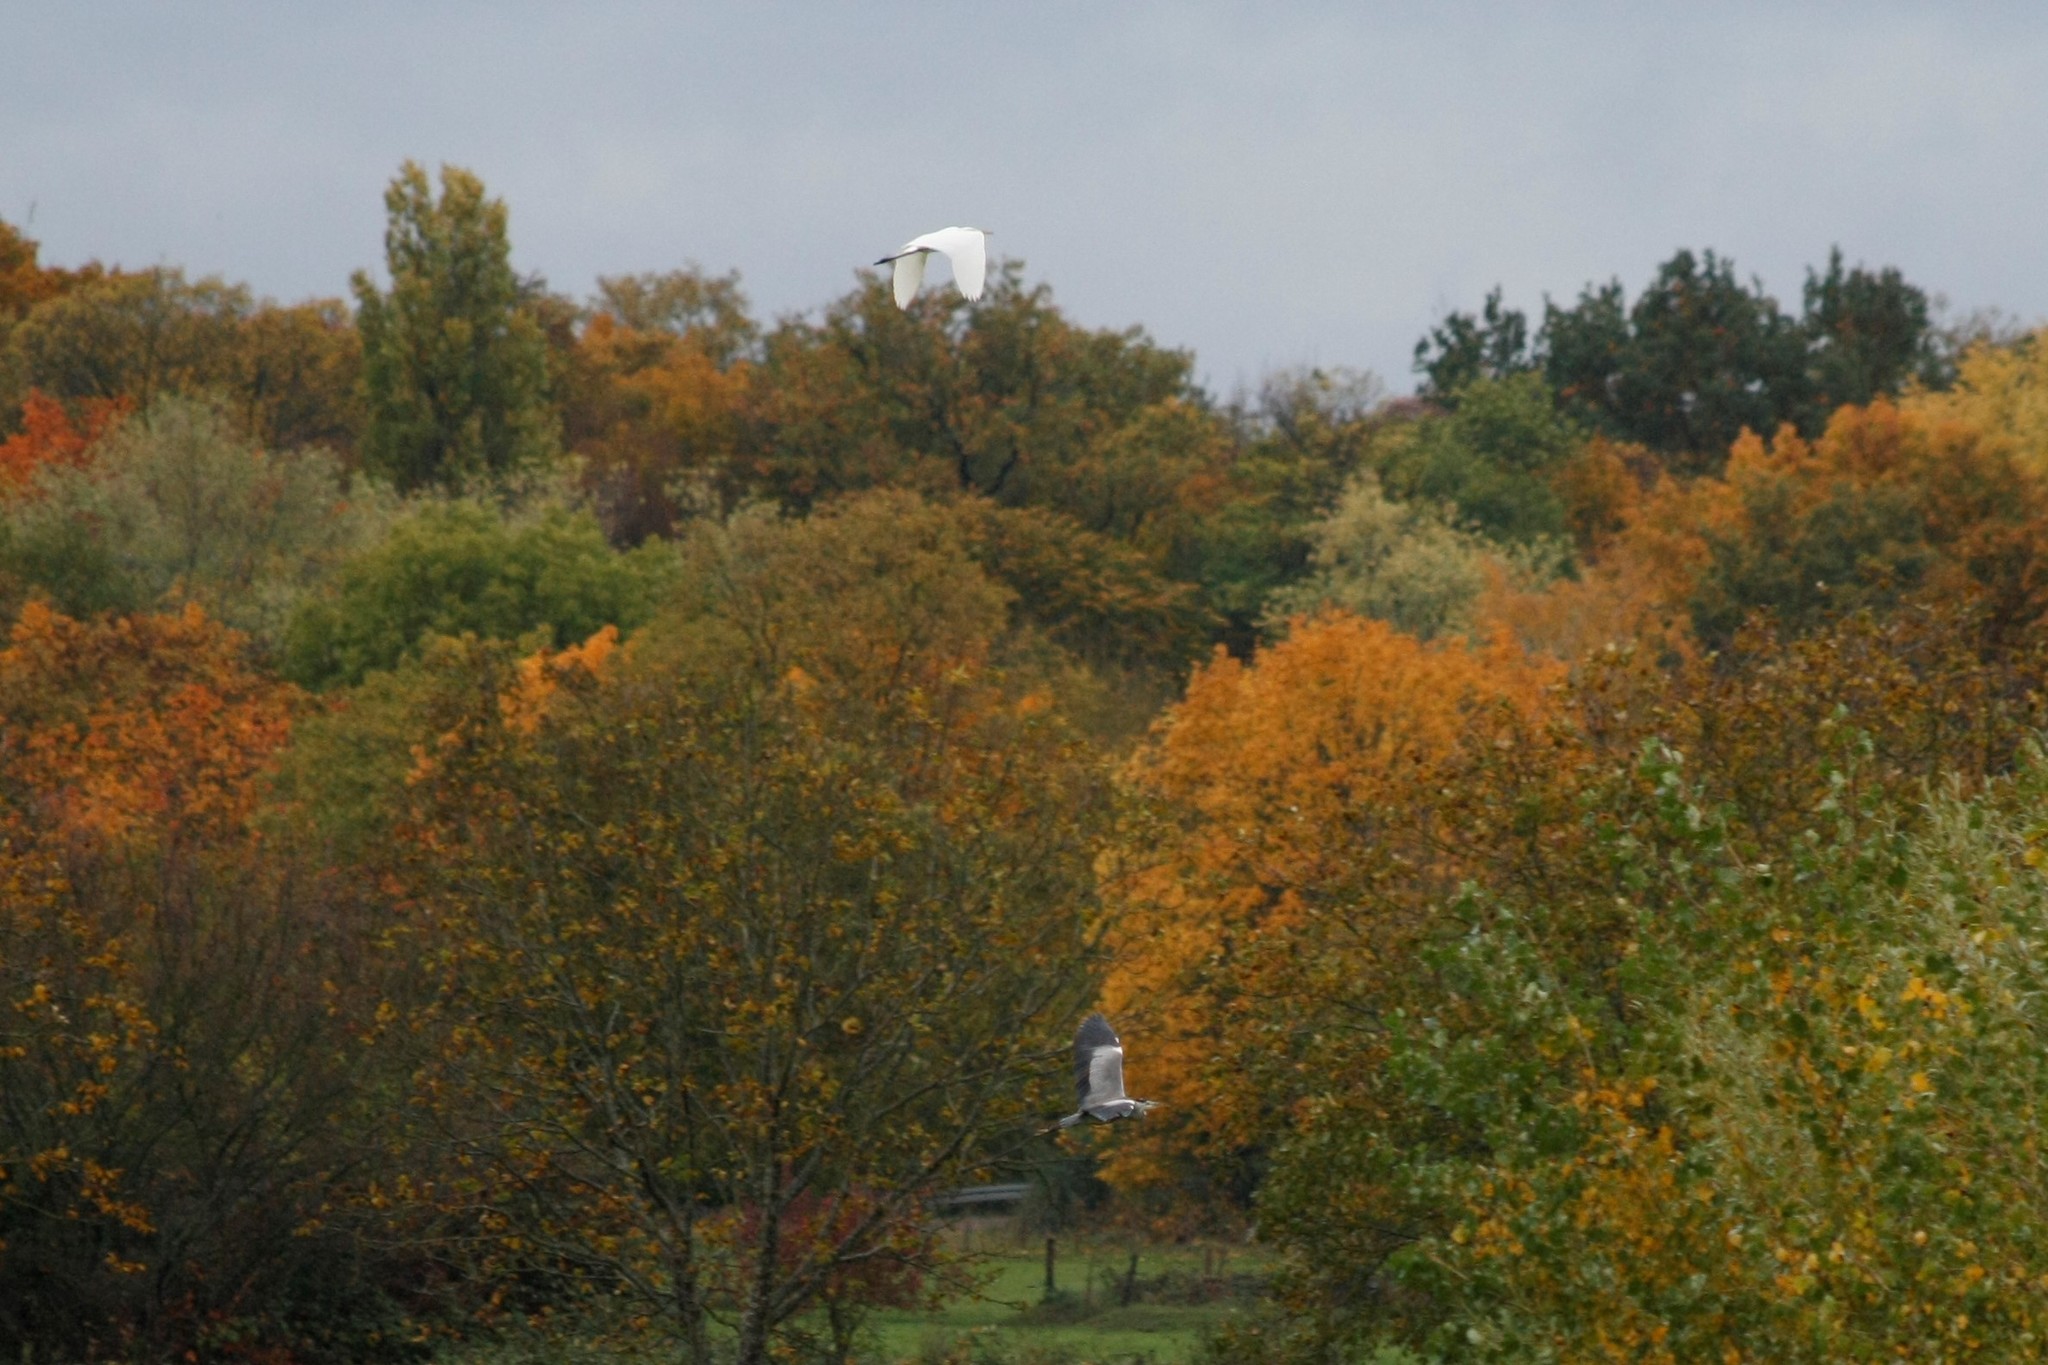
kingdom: Animalia
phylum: Chordata
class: Aves
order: Pelecaniformes
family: Ardeidae
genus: Ardea
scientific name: Ardea cinerea
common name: Grey heron
